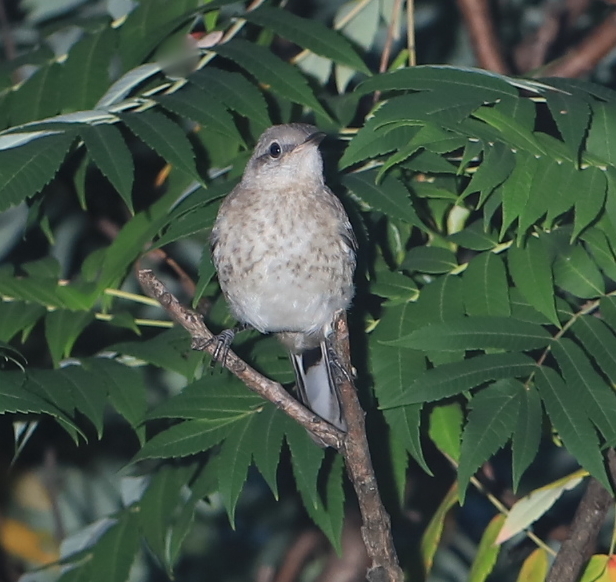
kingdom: Animalia
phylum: Chordata
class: Aves
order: Passeriformes
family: Mimidae
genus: Mimus
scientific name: Mimus polyglottos
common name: Northern mockingbird
